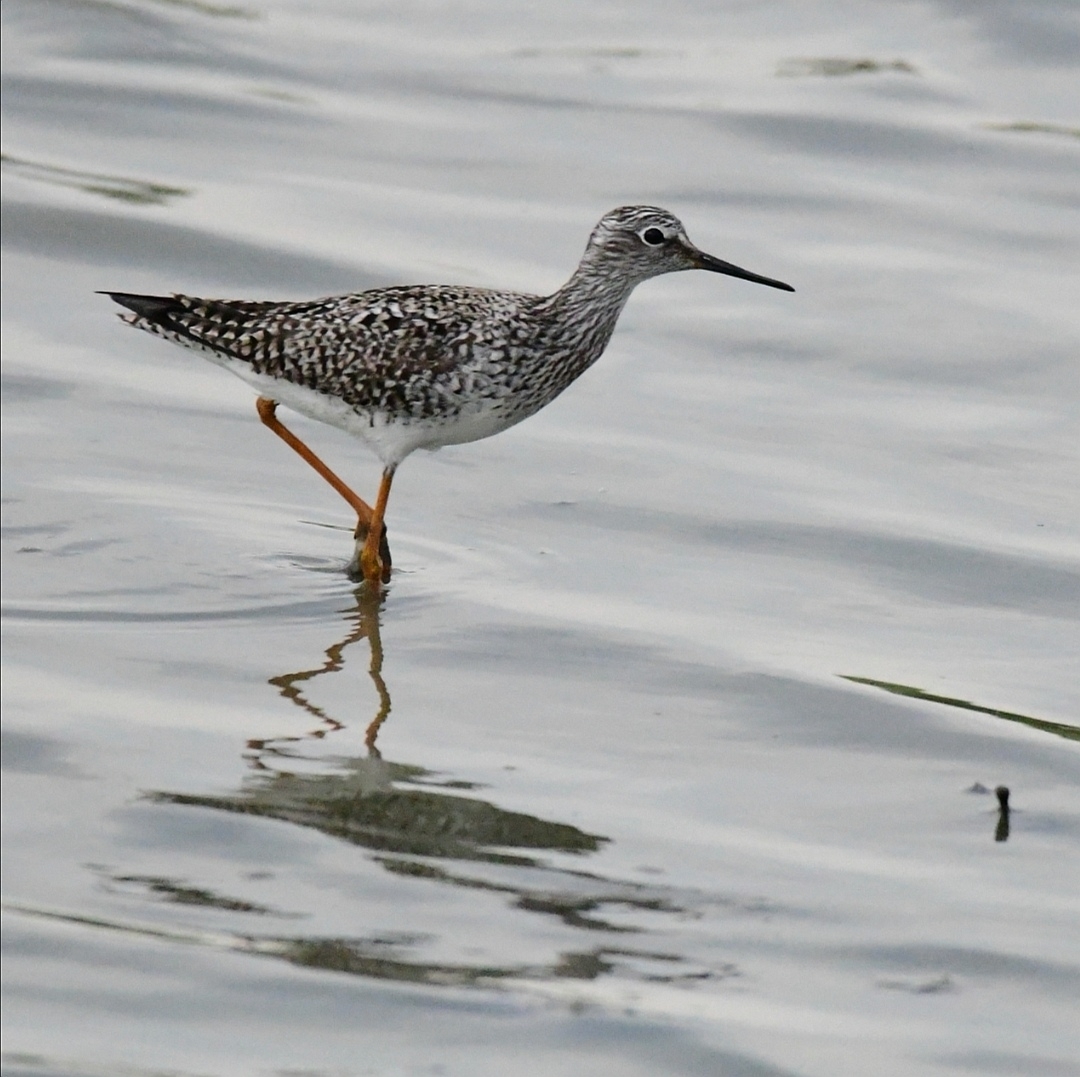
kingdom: Animalia
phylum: Chordata
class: Aves
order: Charadriiformes
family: Scolopacidae
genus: Tringa
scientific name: Tringa flavipes
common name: Lesser yellowlegs
